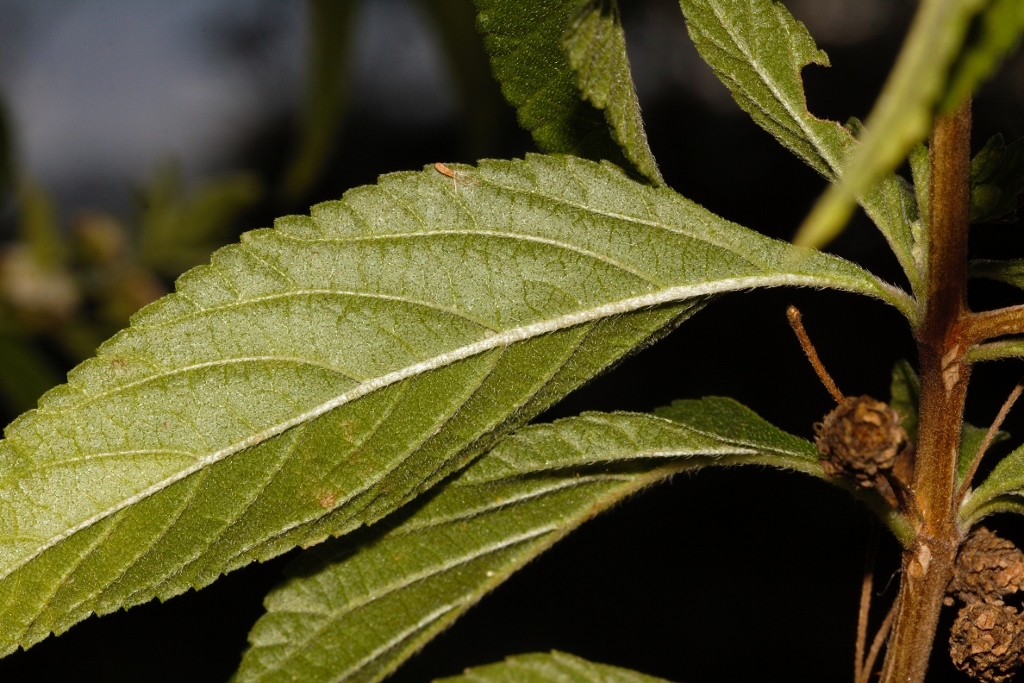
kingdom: Plantae
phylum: Tracheophyta
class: Magnoliopsida
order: Lamiales
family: Verbenaceae
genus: Lippia
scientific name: Lippia javanica
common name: Lemonbush
